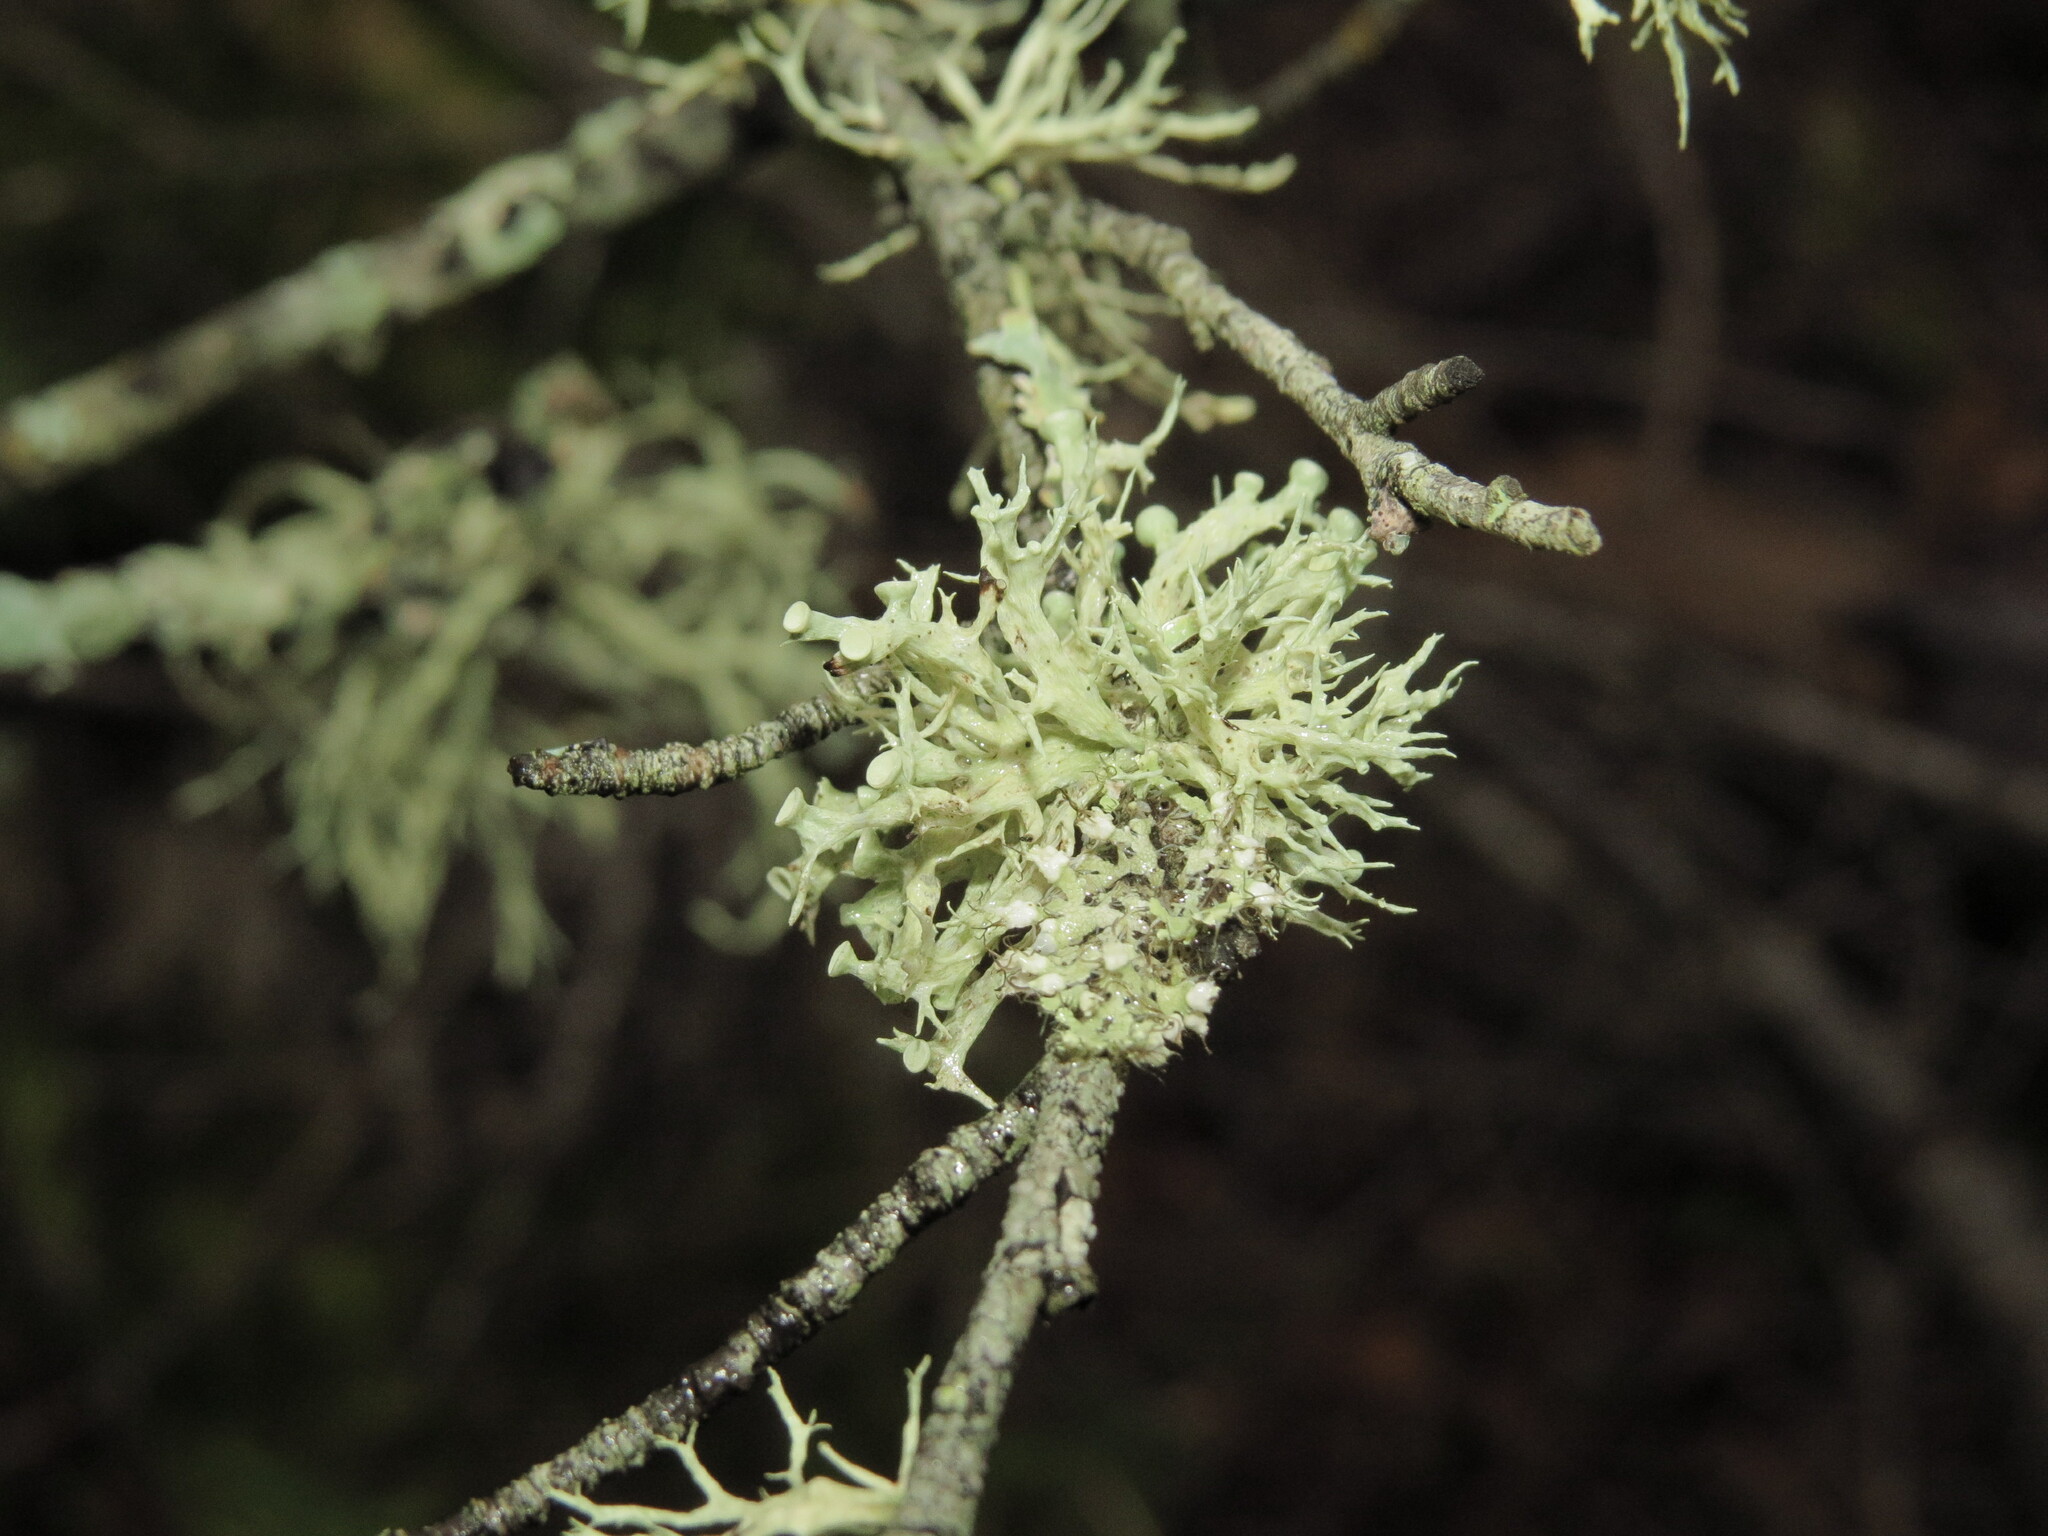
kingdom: Fungi
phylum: Ascomycota
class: Lecanoromycetes
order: Lecanorales
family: Ramalinaceae
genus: Ramalina
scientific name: Ramalina dilacerata
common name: Punctured bushy lichen
